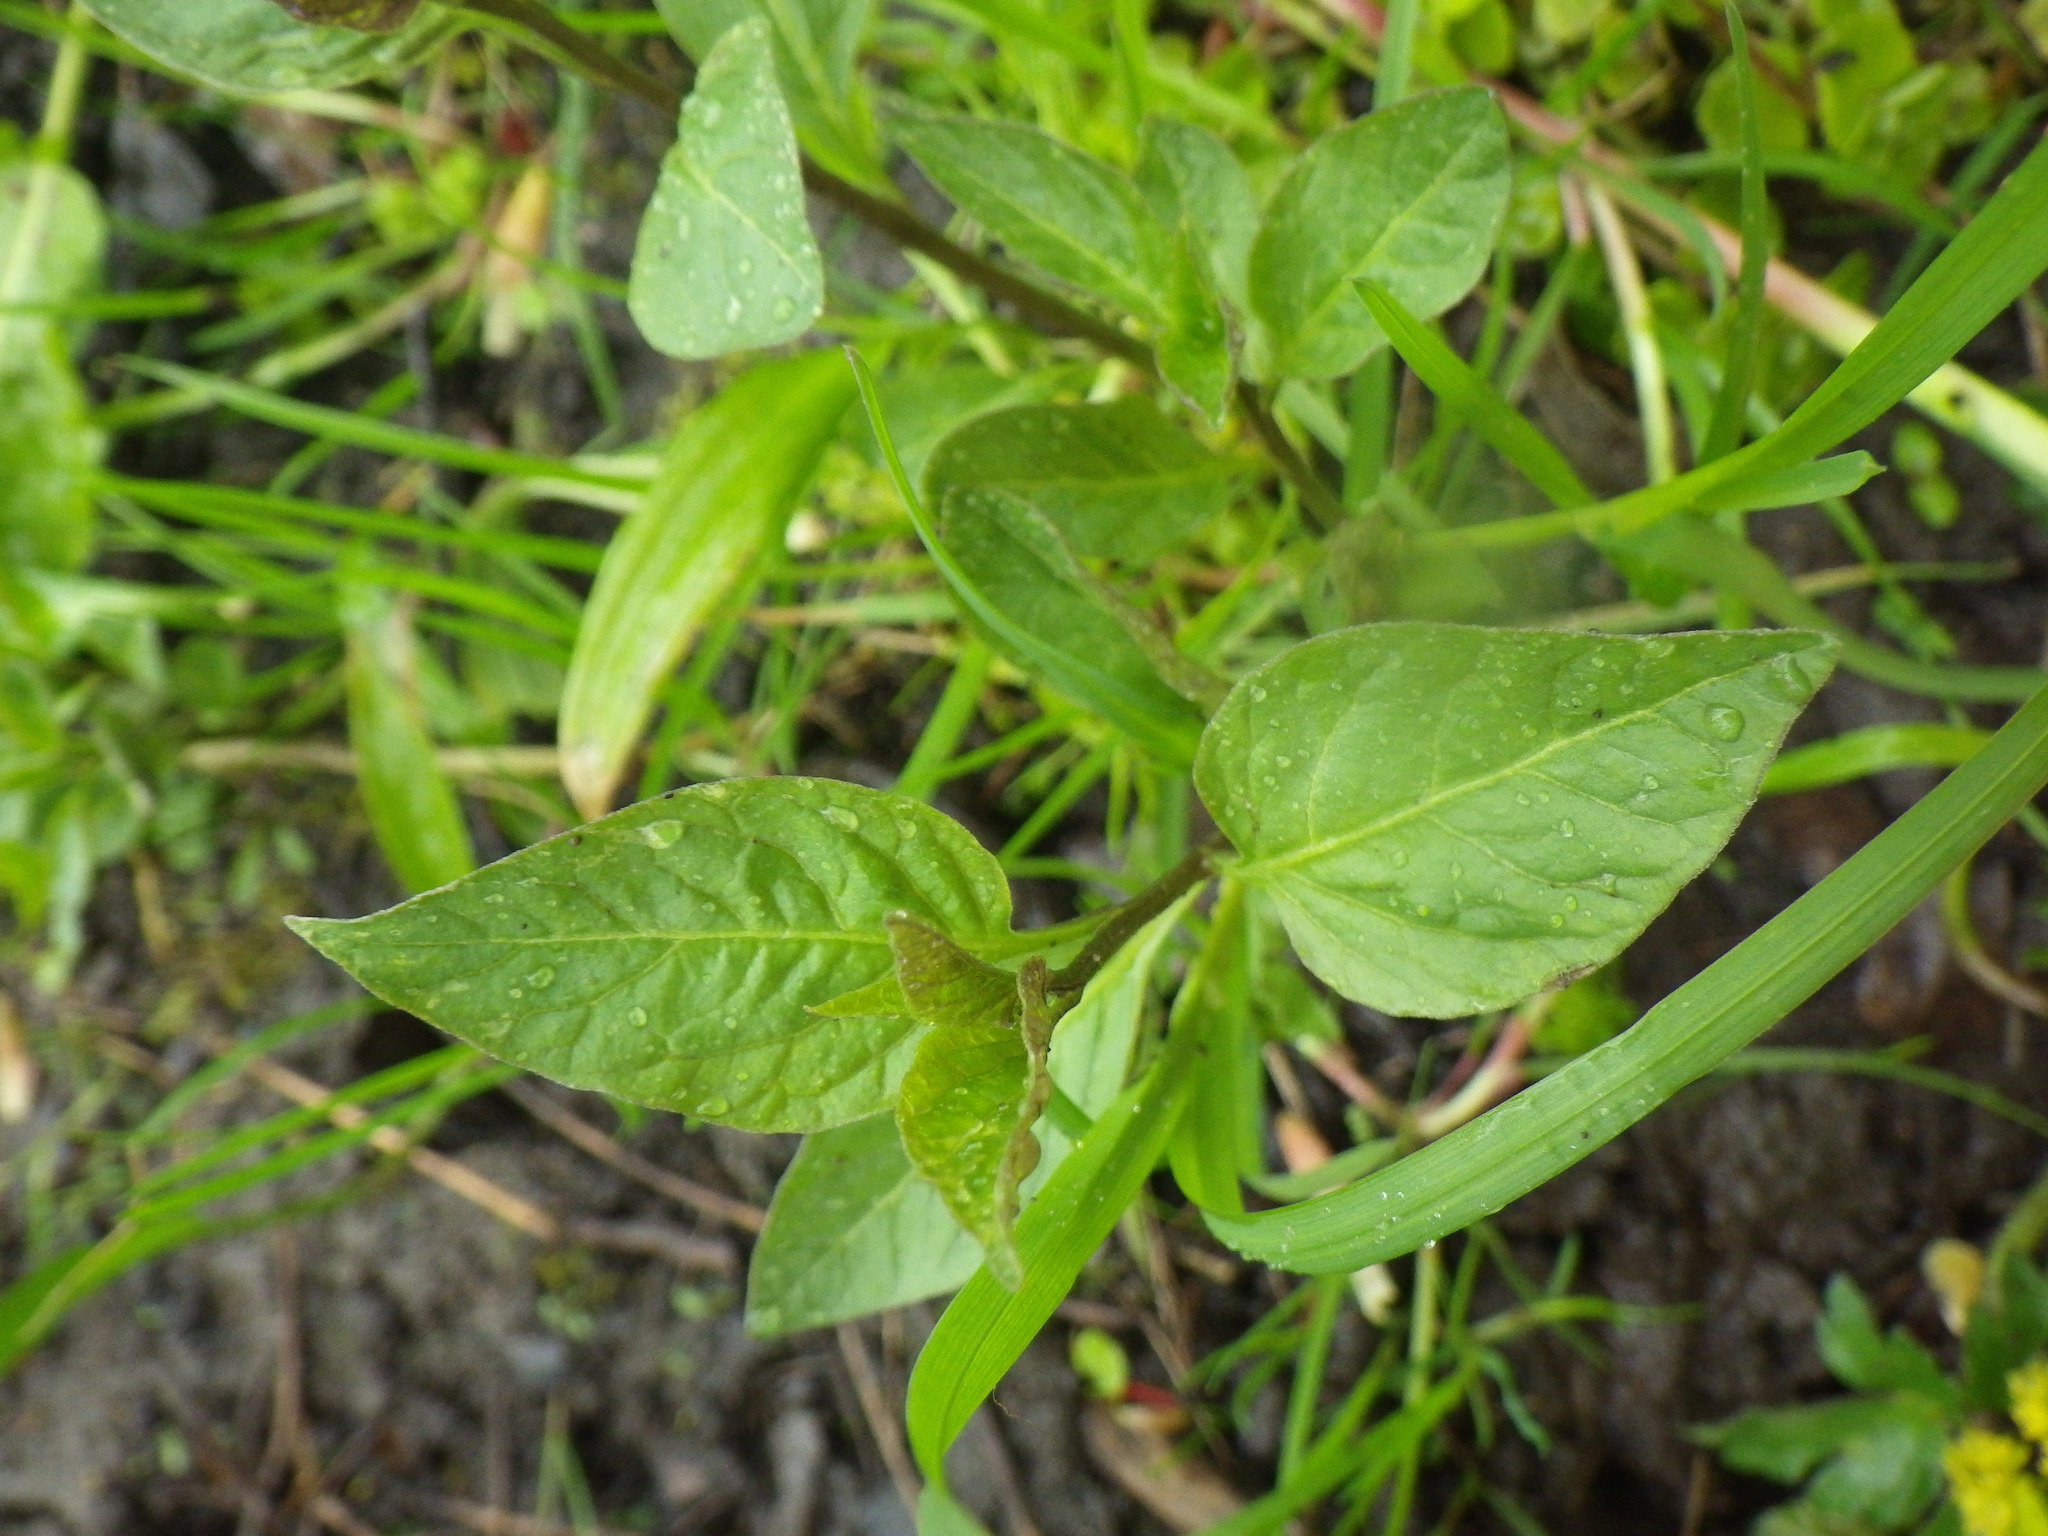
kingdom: Plantae
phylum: Tracheophyta
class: Magnoliopsida
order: Solanales
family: Solanaceae
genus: Solanum
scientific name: Solanum dulcamara
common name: Climbing nightshade
